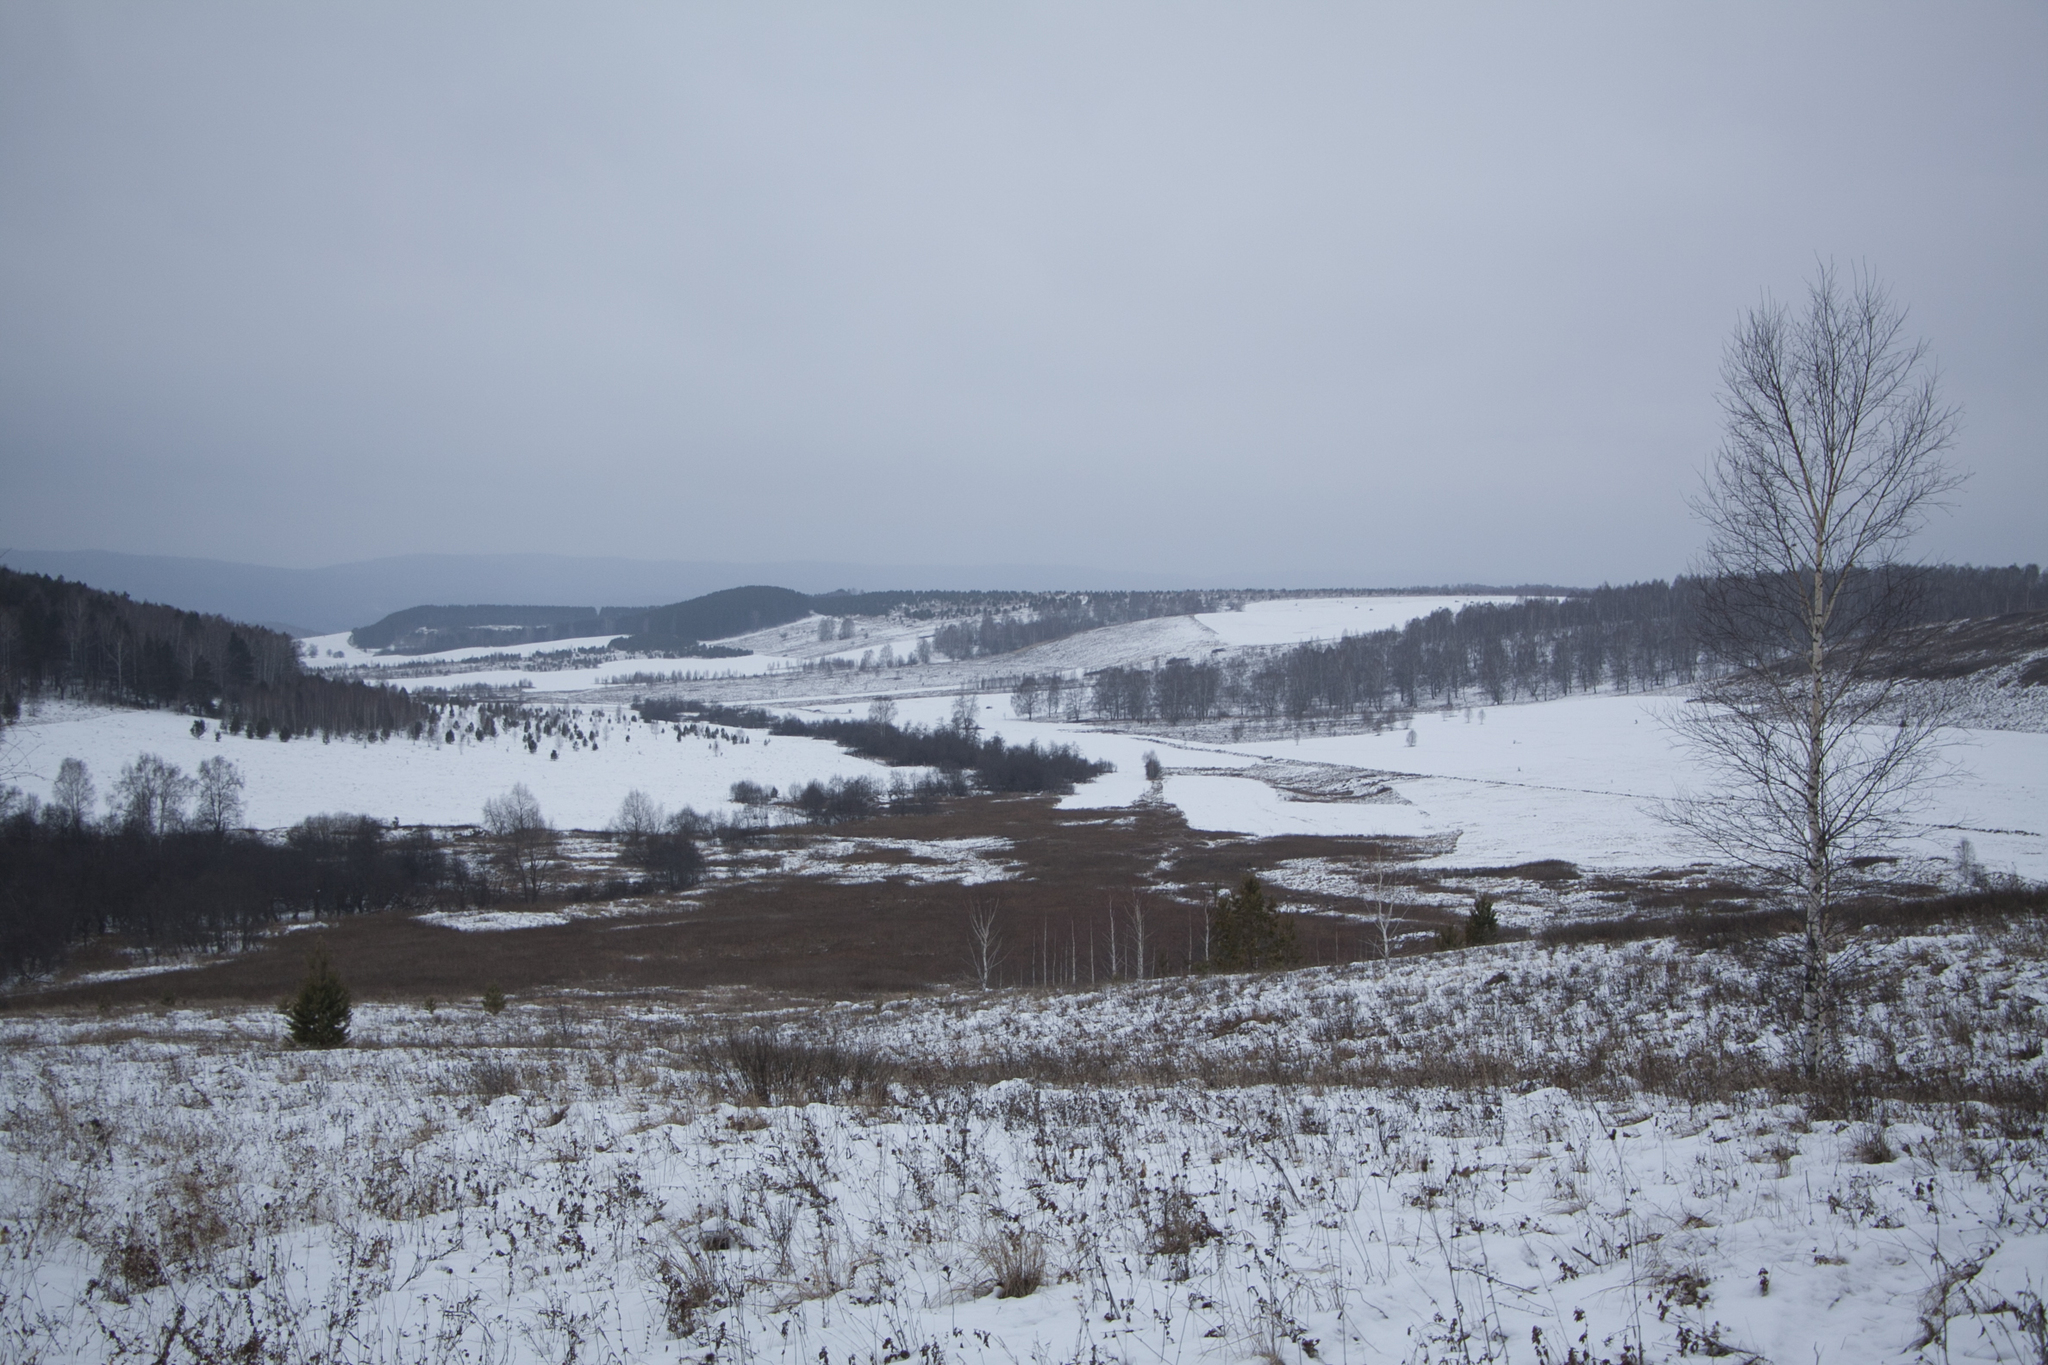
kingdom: Plantae
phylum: Tracheophyta
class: Magnoliopsida
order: Fagales
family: Betulaceae
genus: Betula
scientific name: Betula pendula
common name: Silver birch
